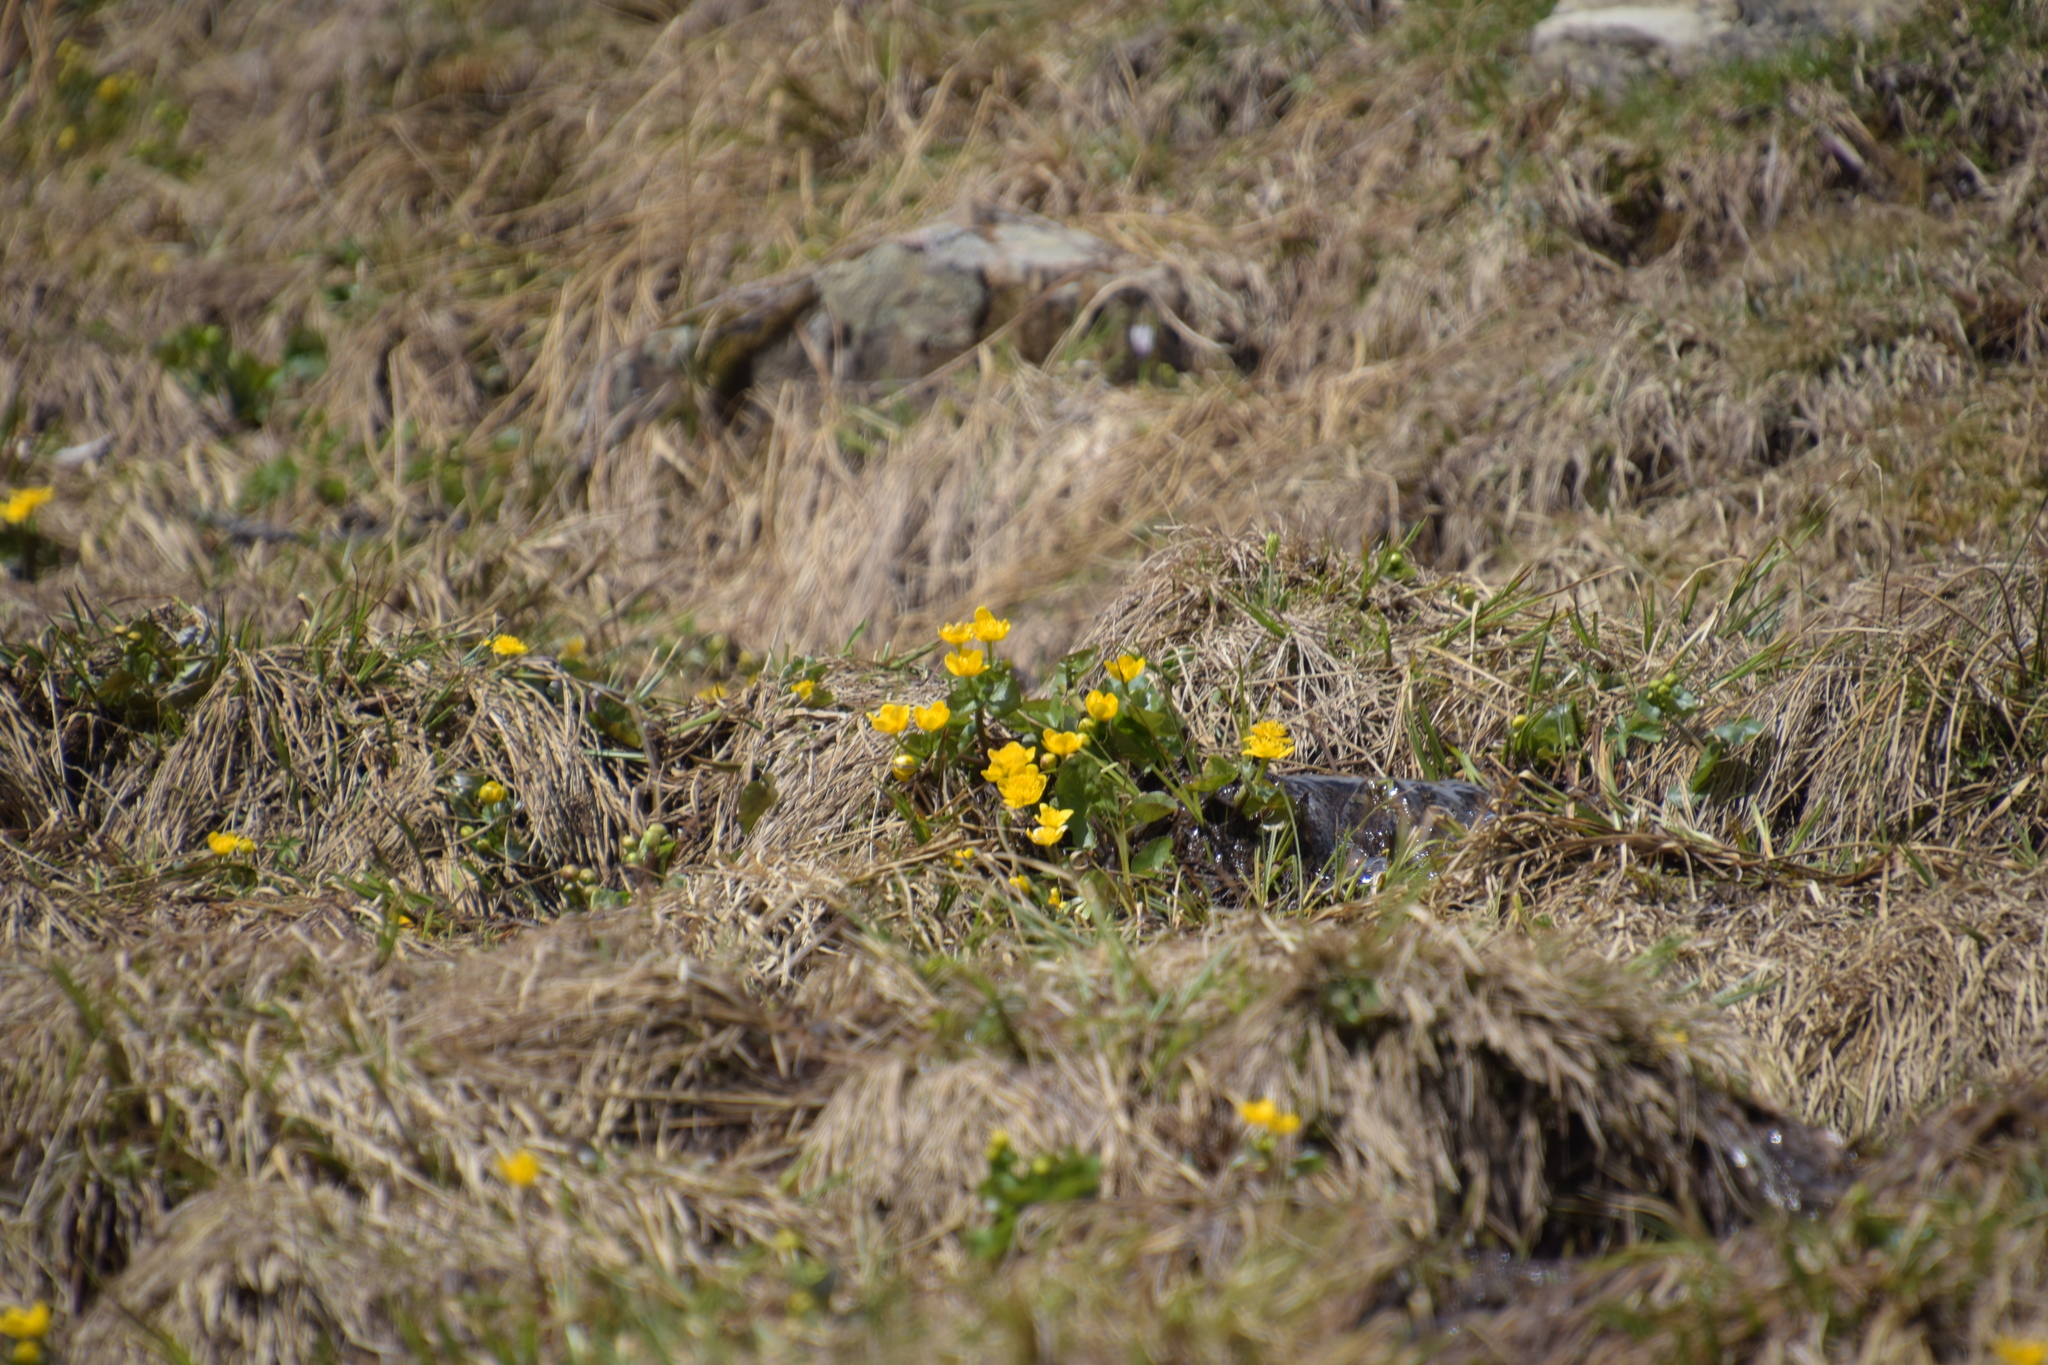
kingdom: Plantae
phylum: Tracheophyta
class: Magnoliopsida
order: Ranunculales
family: Ranunculaceae
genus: Caltha
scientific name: Caltha palustris
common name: Marsh marigold
